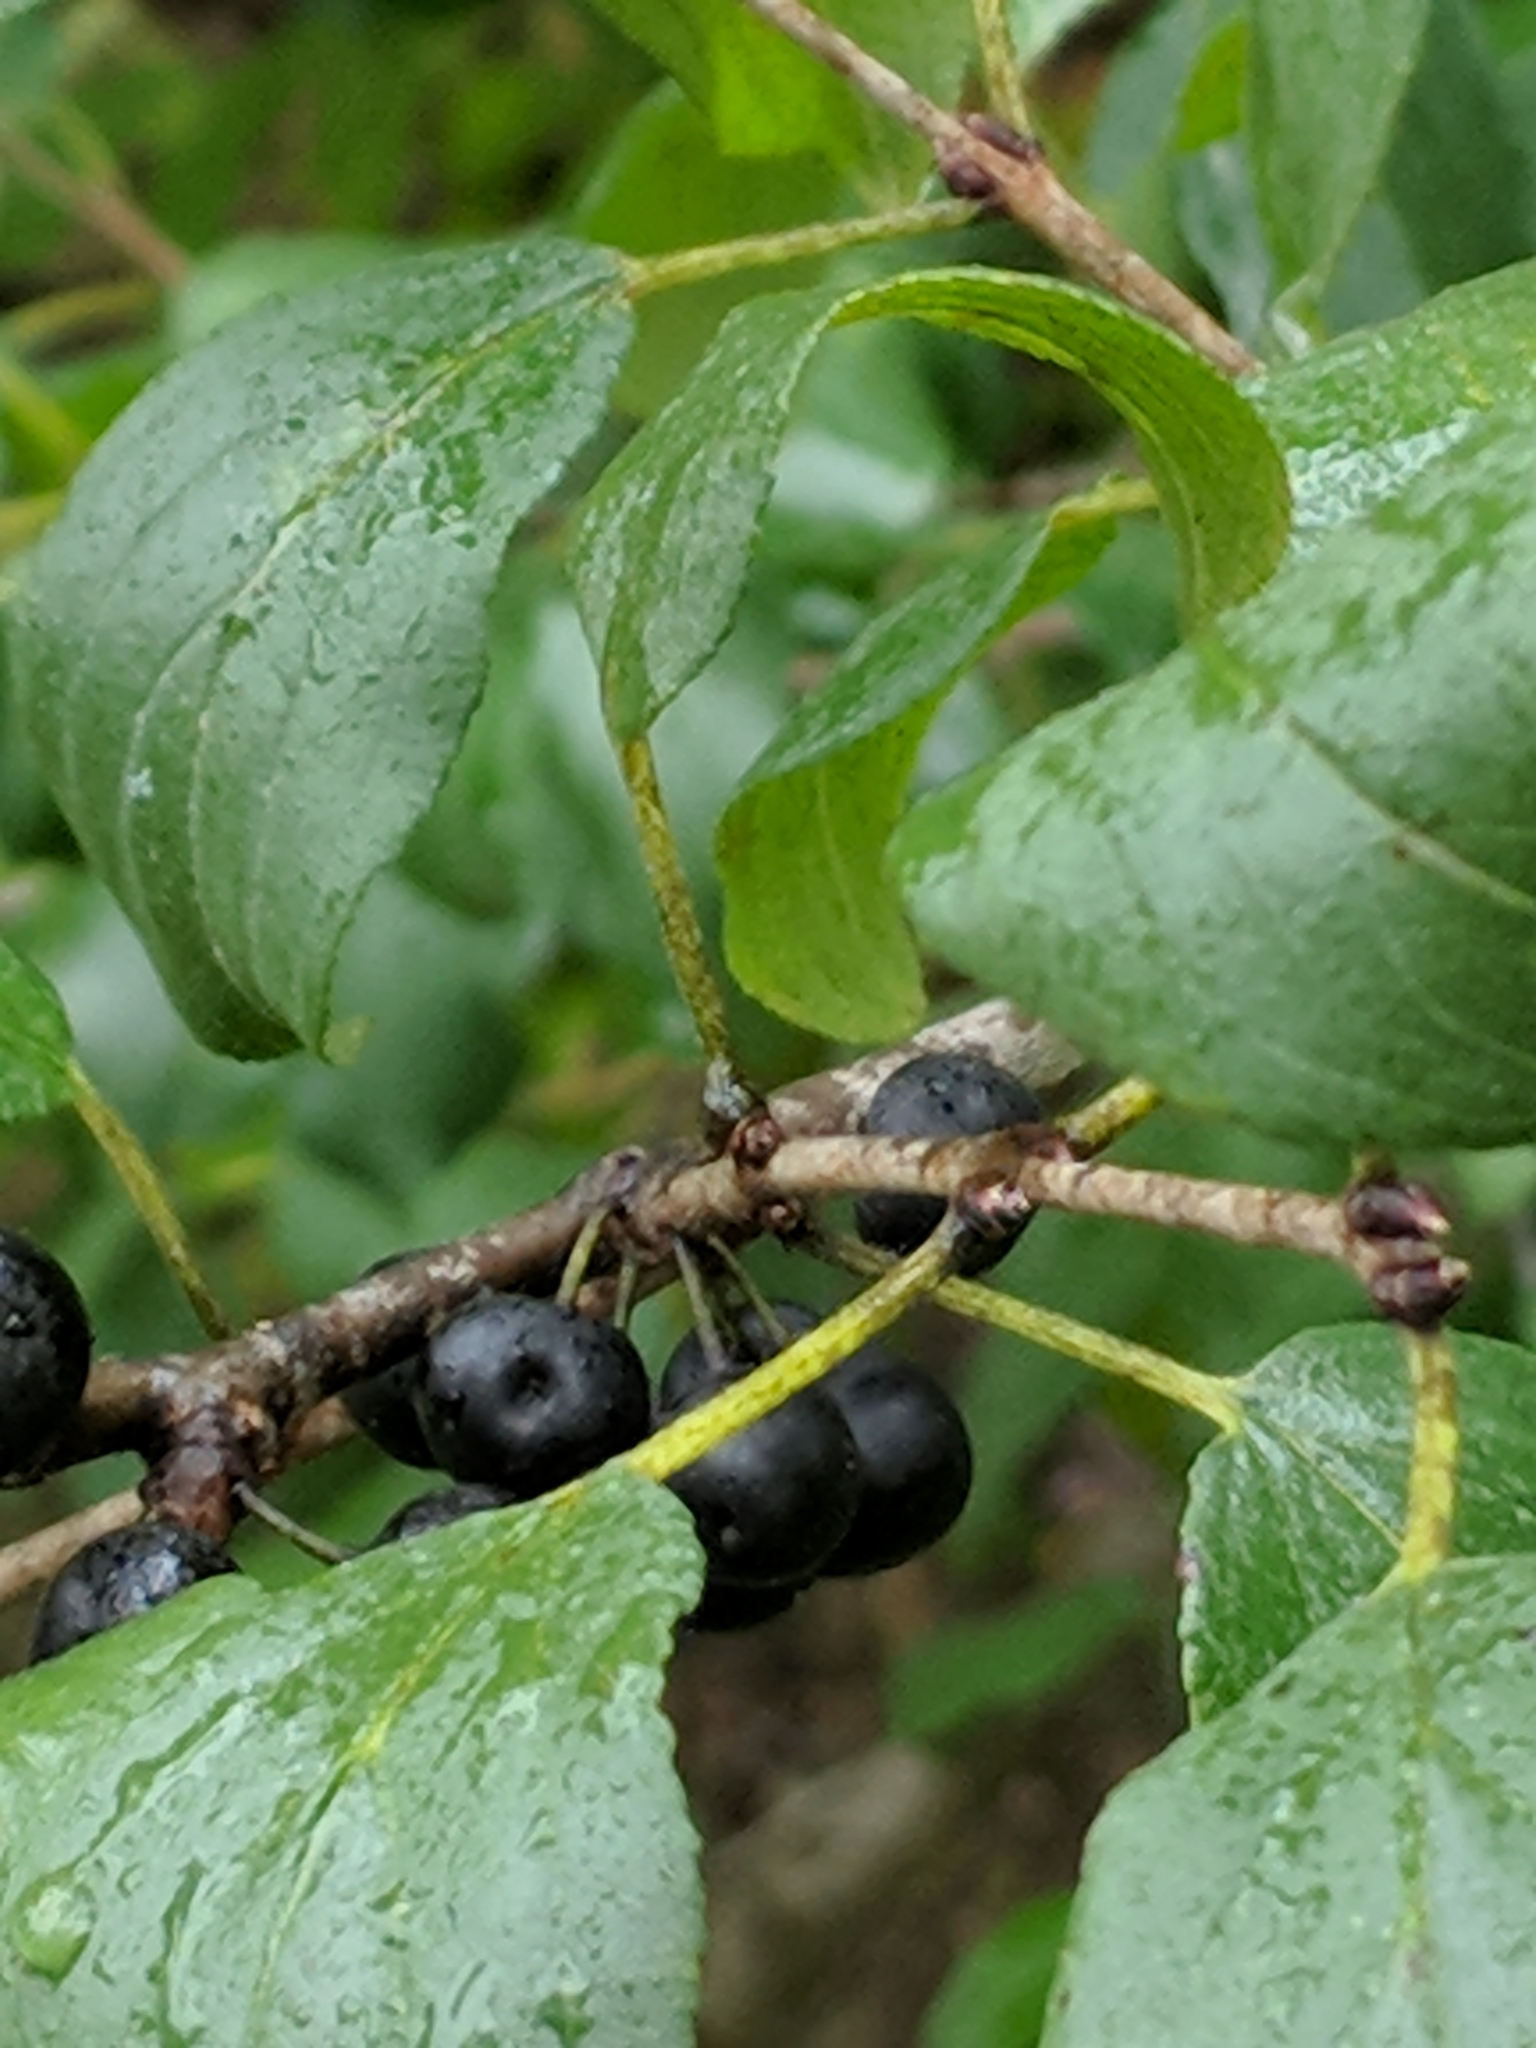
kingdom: Plantae
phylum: Tracheophyta
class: Magnoliopsida
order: Rosales
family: Rhamnaceae
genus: Rhamnus
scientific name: Rhamnus cathartica
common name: Common buckthorn
